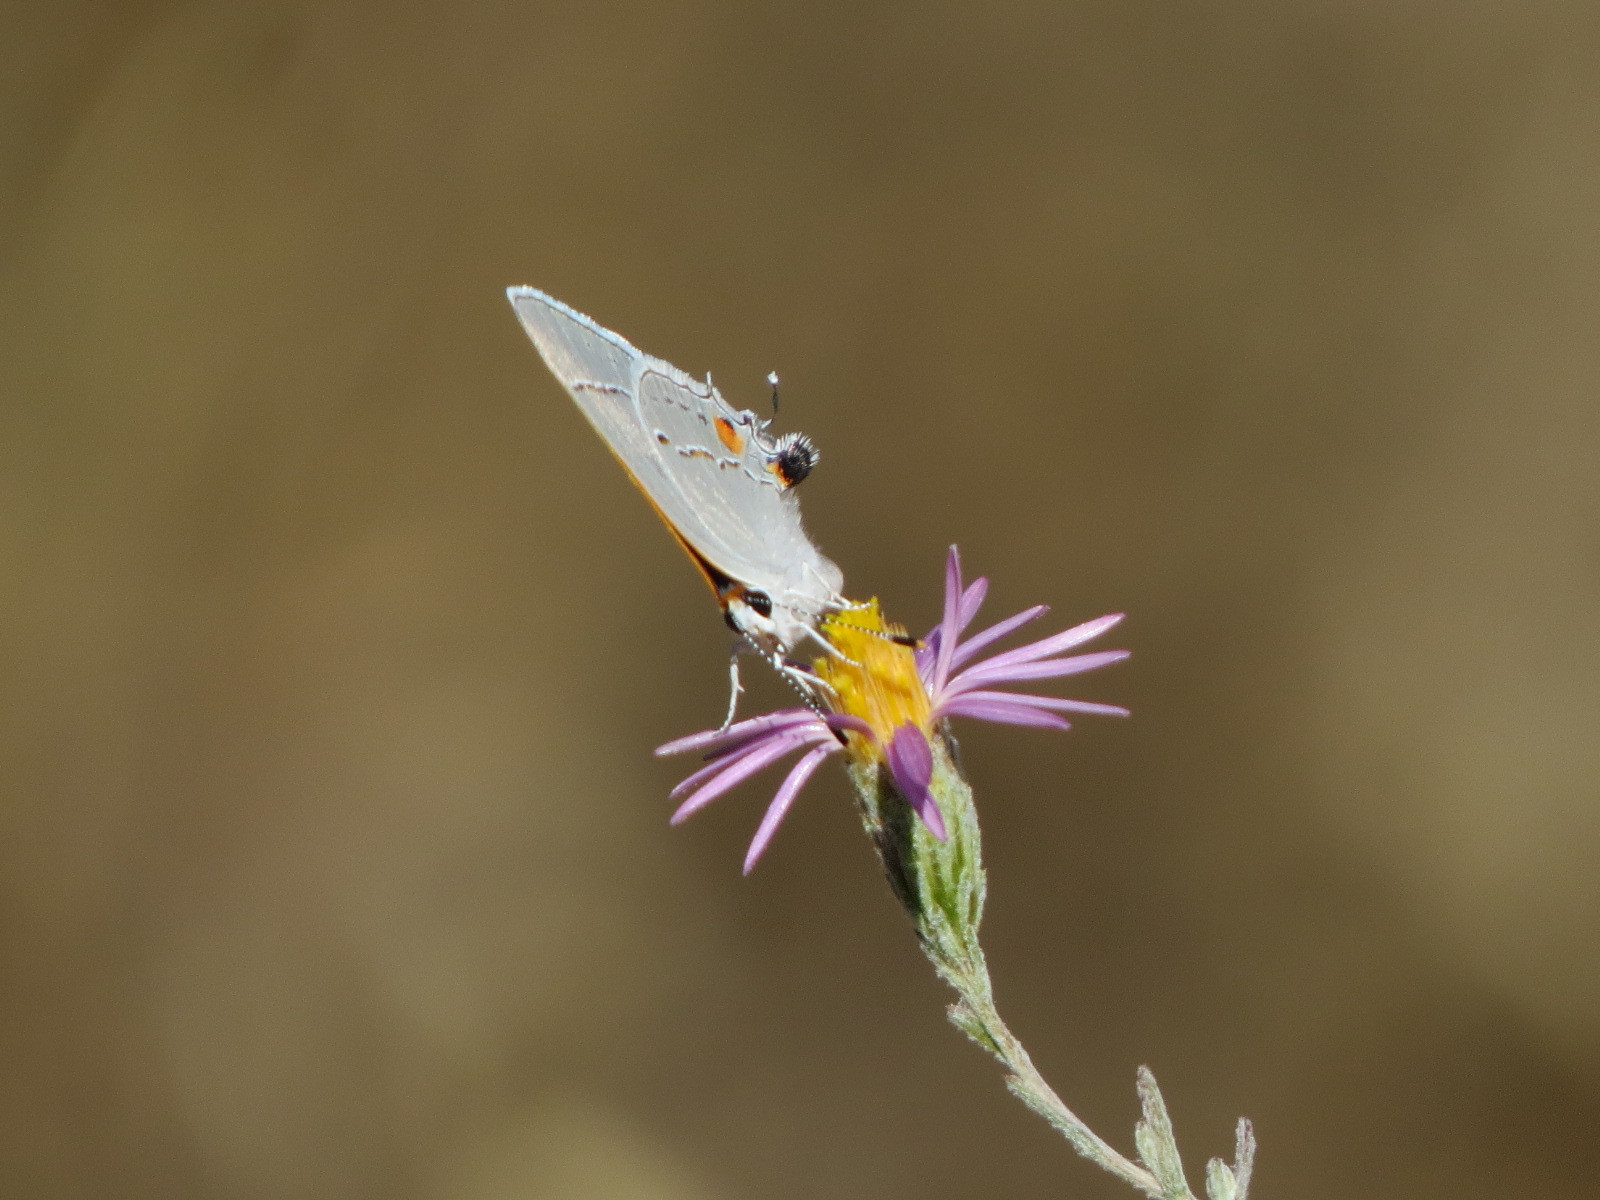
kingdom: Animalia
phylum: Arthropoda
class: Insecta
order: Lepidoptera
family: Lycaenidae
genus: Strymon
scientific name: Strymon melinus
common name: Gray hairstreak
